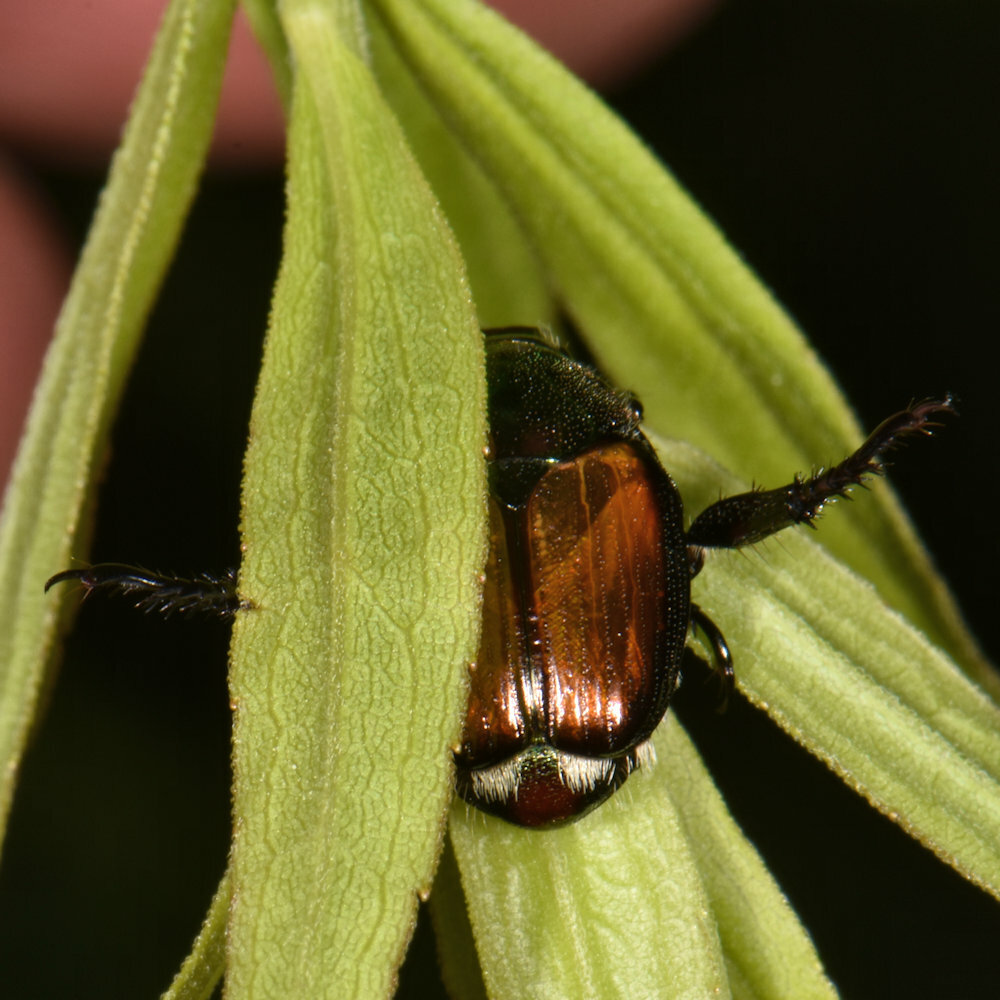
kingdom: Animalia
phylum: Arthropoda
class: Insecta
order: Coleoptera
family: Scarabaeidae
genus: Popillia
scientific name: Popillia japonica
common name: Japanese beetle
